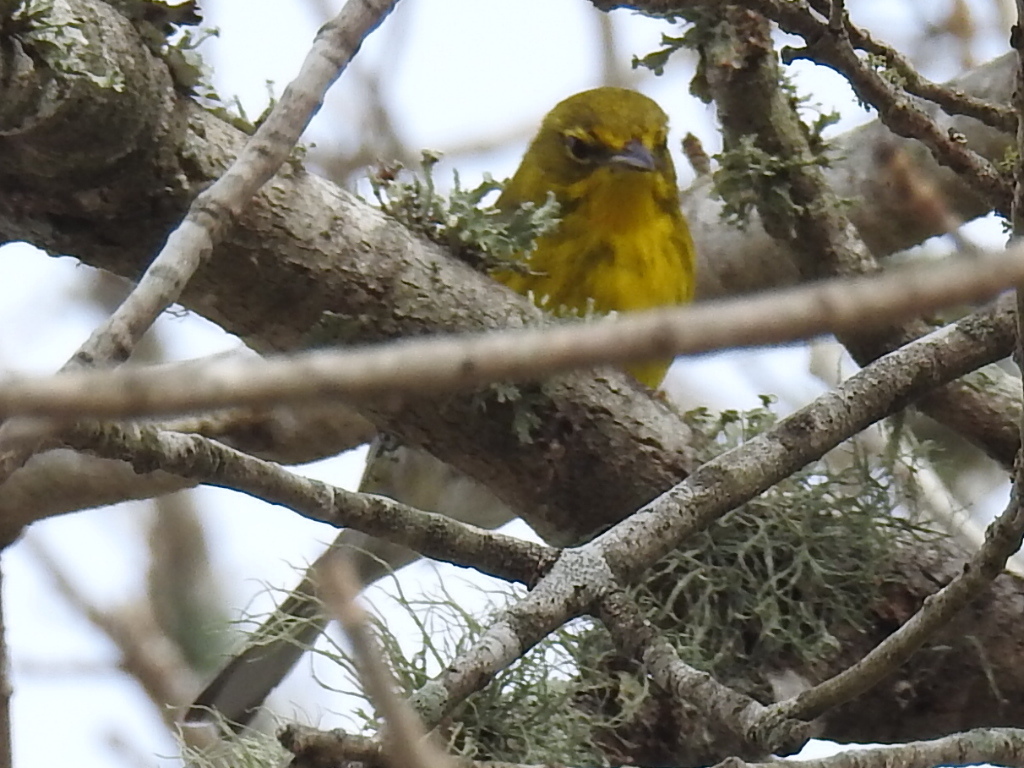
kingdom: Animalia
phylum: Chordata
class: Aves
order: Passeriformes
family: Parulidae
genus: Setophaga
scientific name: Setophaga pinus
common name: Pine warbler
